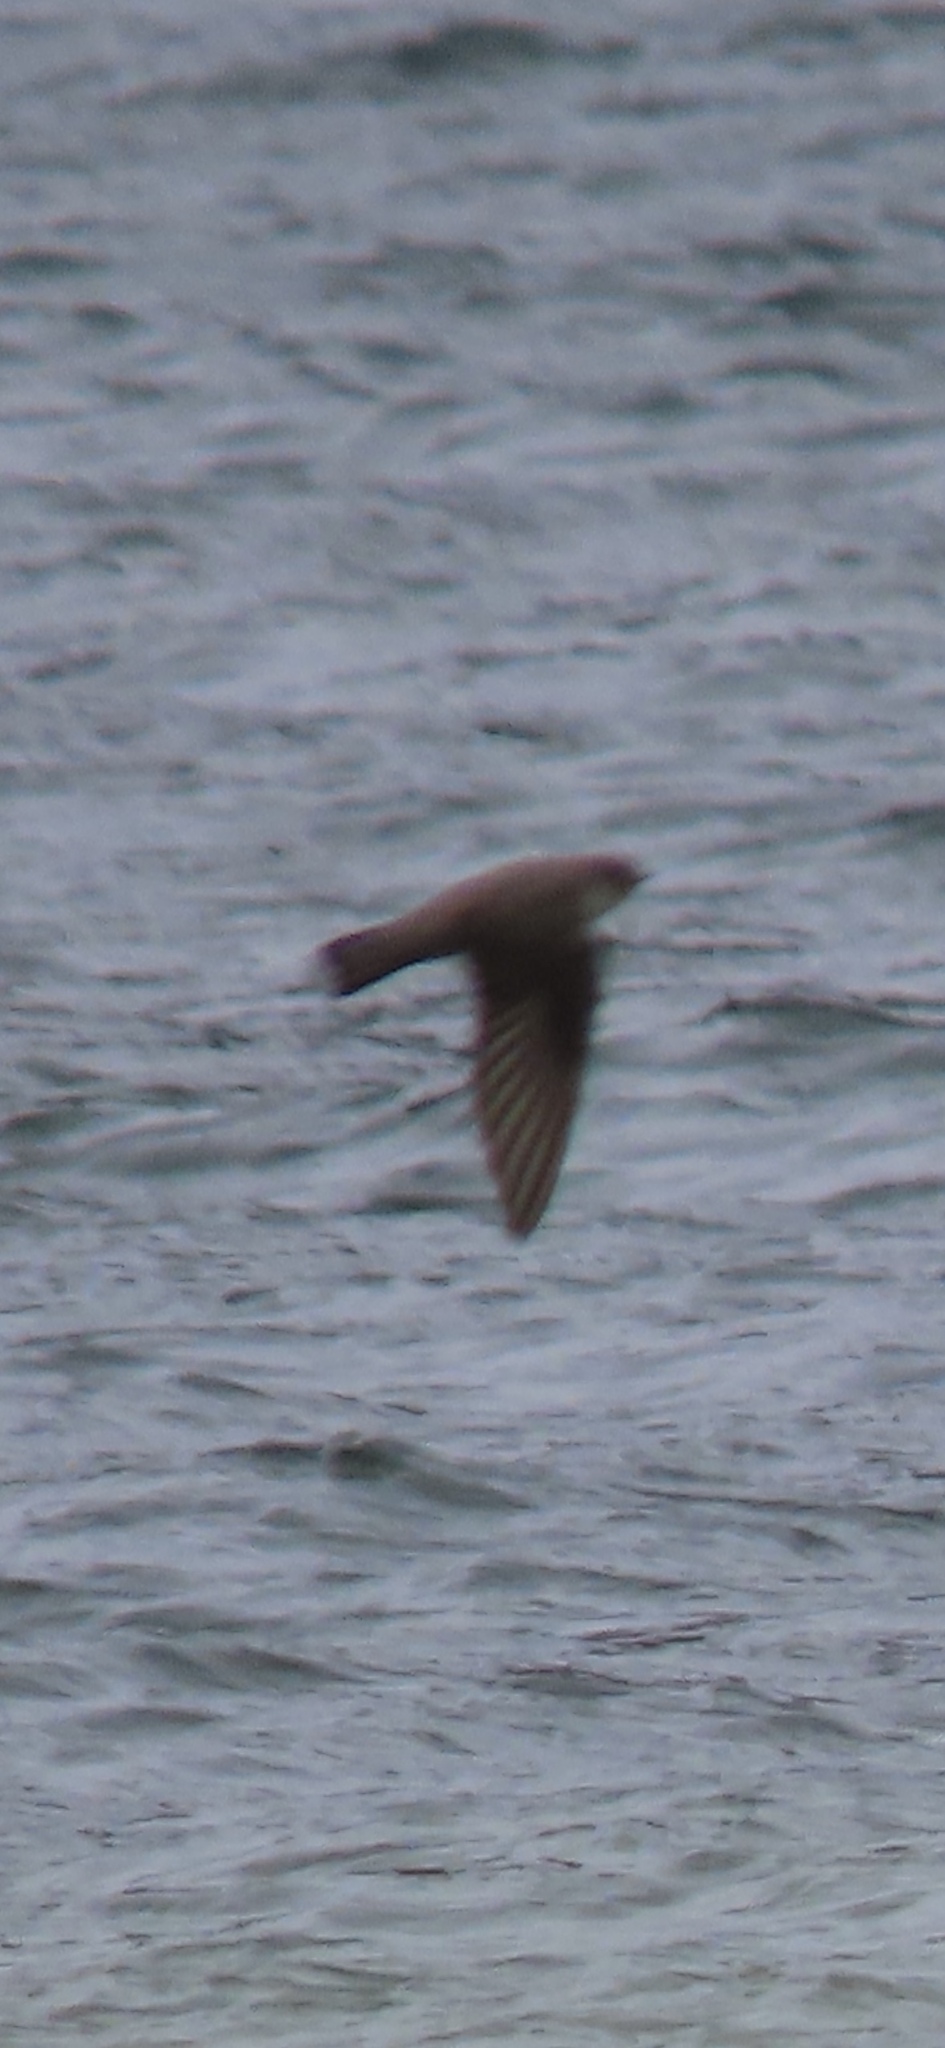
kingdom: Animalia
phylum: Chordata
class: Aves
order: Passeriformes
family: Hirundinidae
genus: Ptyonoprogne
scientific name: Ptyonoprogne rupestris
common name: Eurasian crag martin
